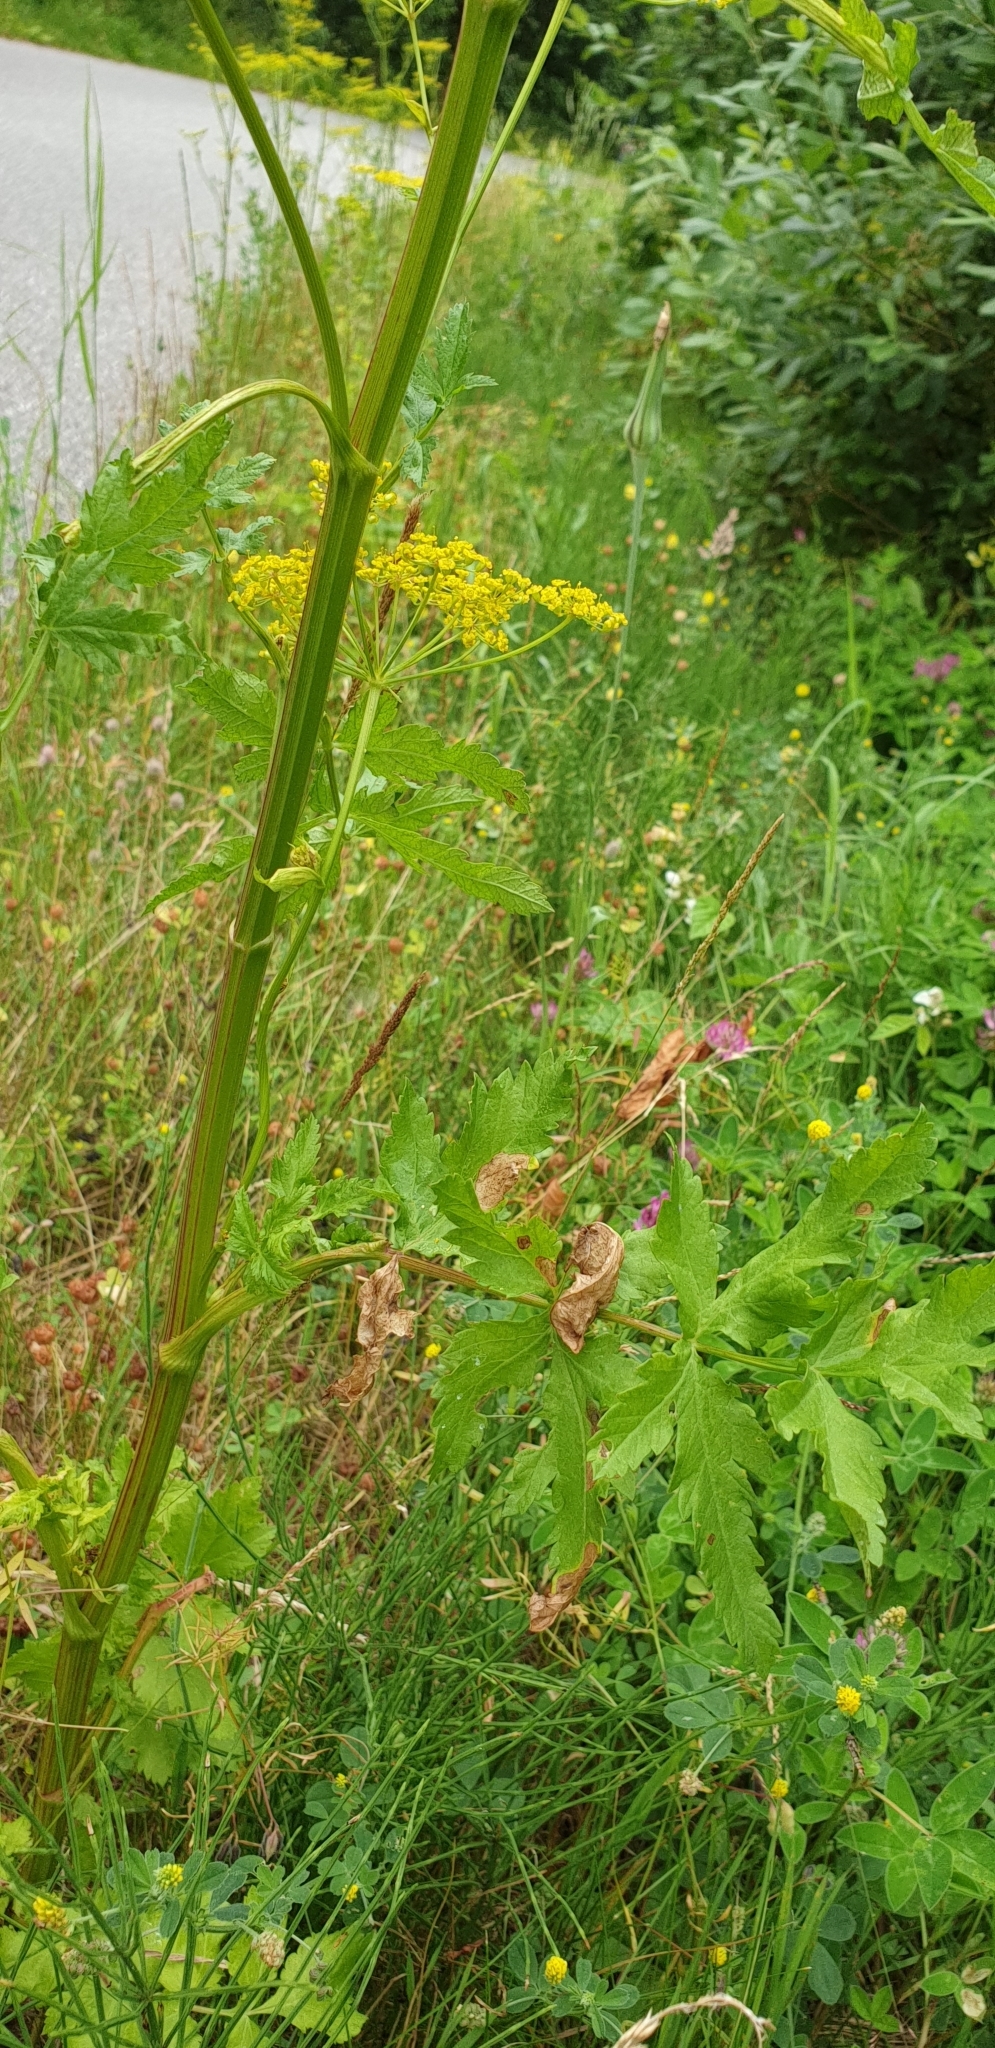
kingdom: Plantae
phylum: Tracheophyta
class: Magnoliopsida
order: Apiales
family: Apiaceae
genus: Pastinaca
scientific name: Pastinaca sativa
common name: Wild parsnip
